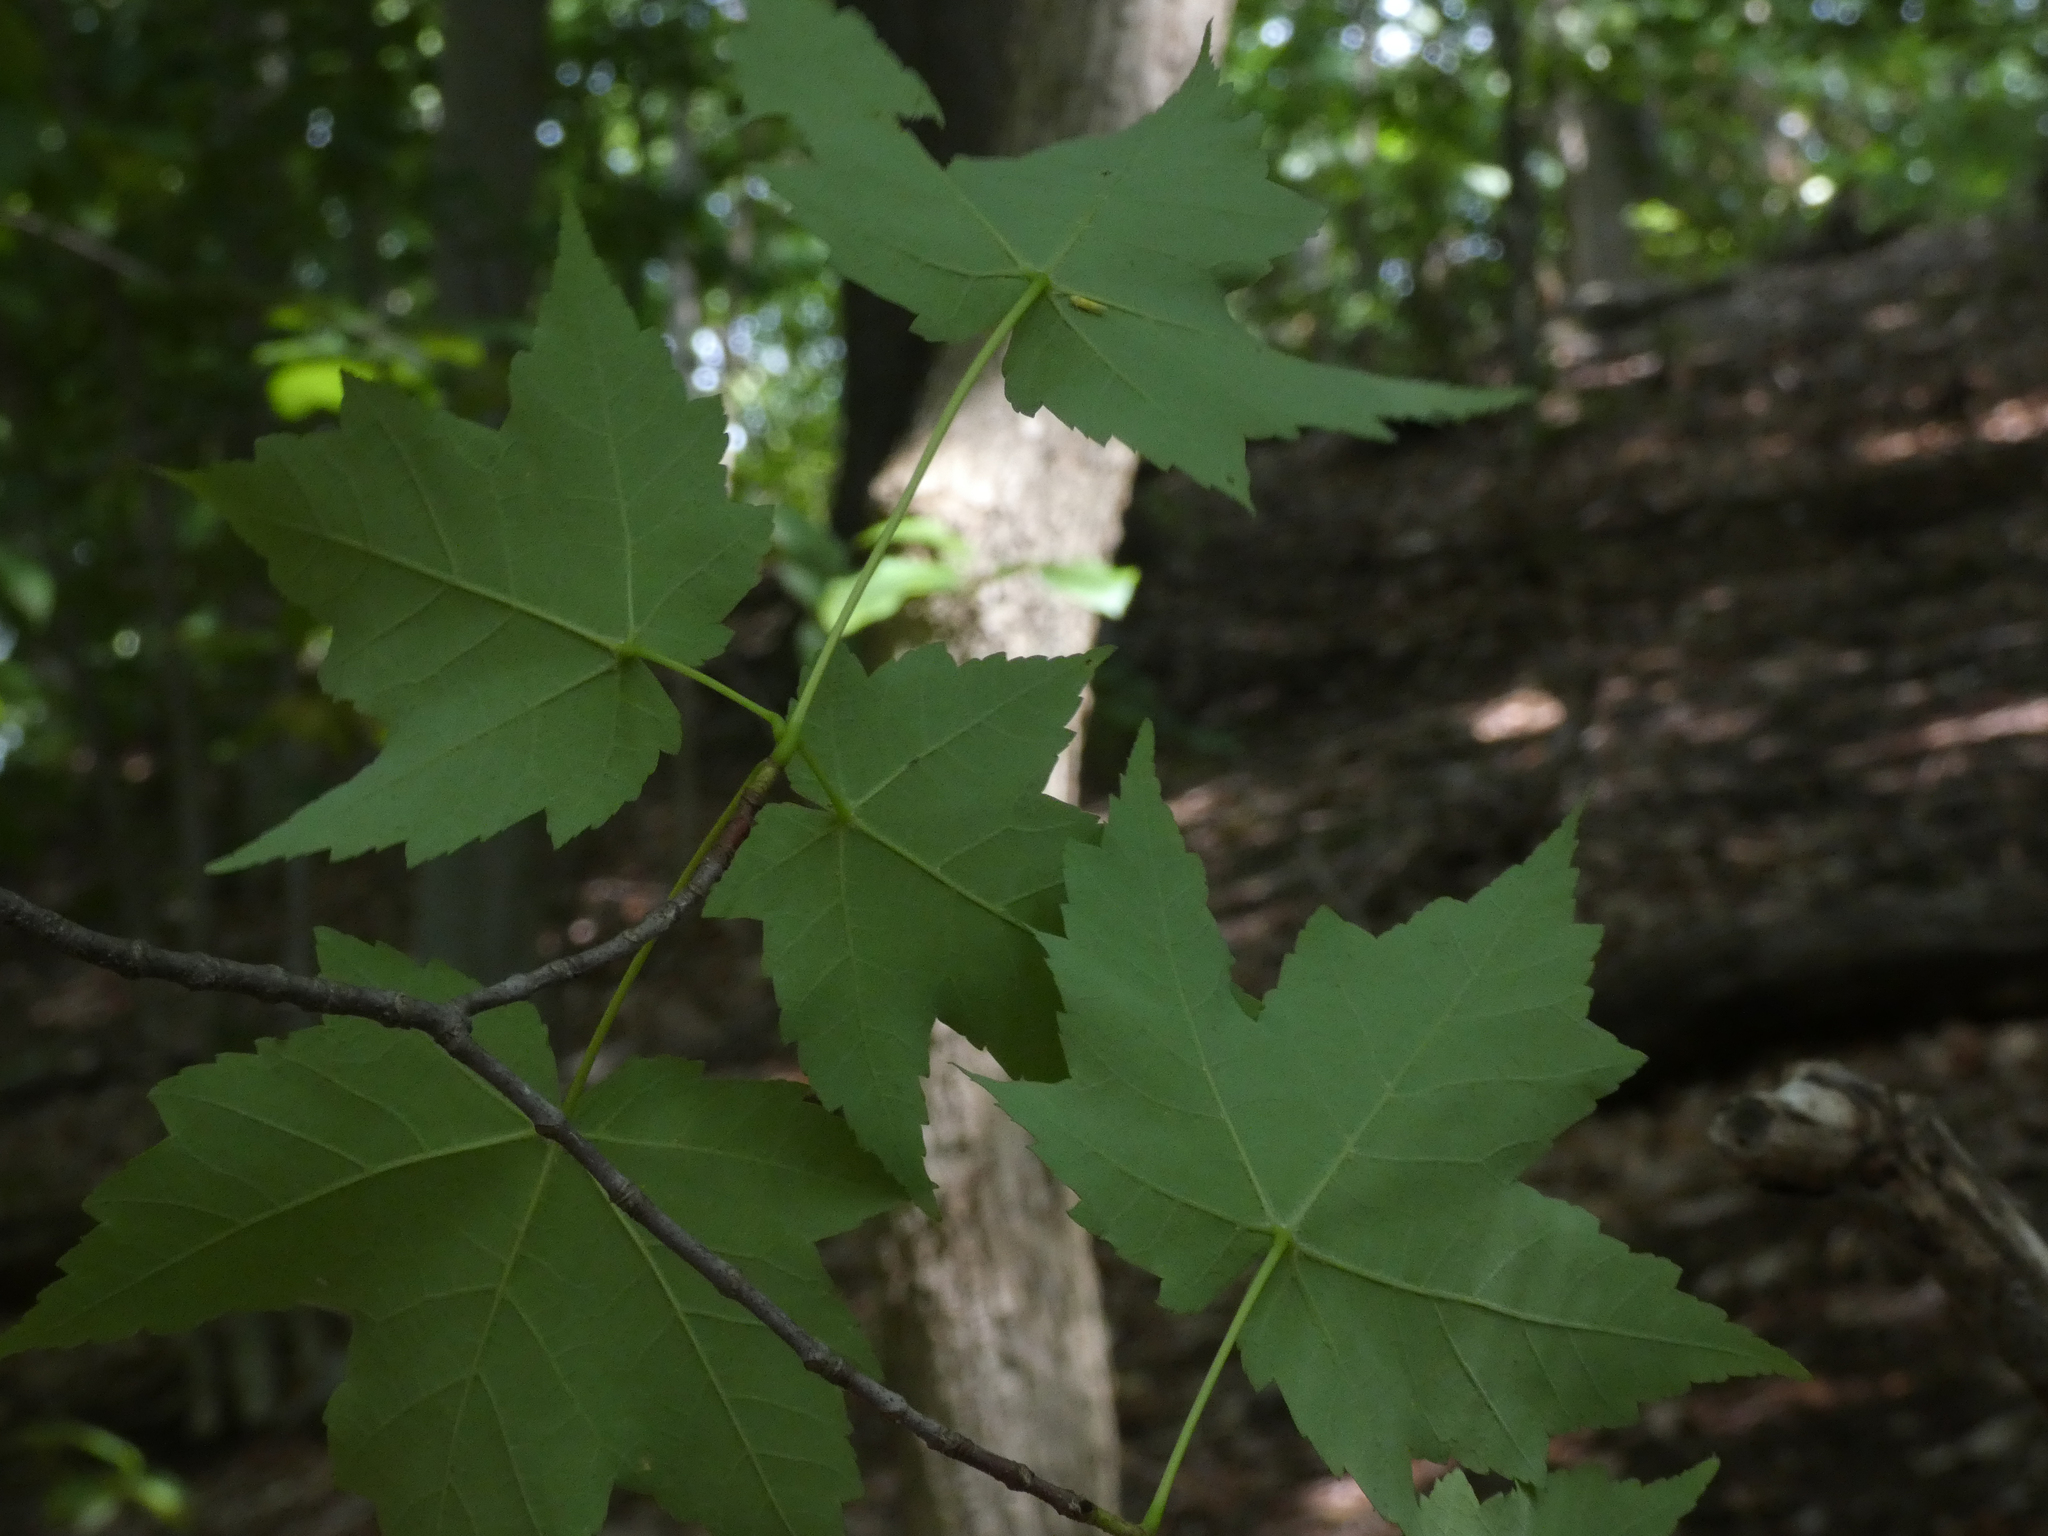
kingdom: Plantae
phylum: Tracheophyta
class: Magnoliopsida
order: Sapindales
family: Sapindaceae
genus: Acer
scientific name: Acer rubrum
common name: Red maple
